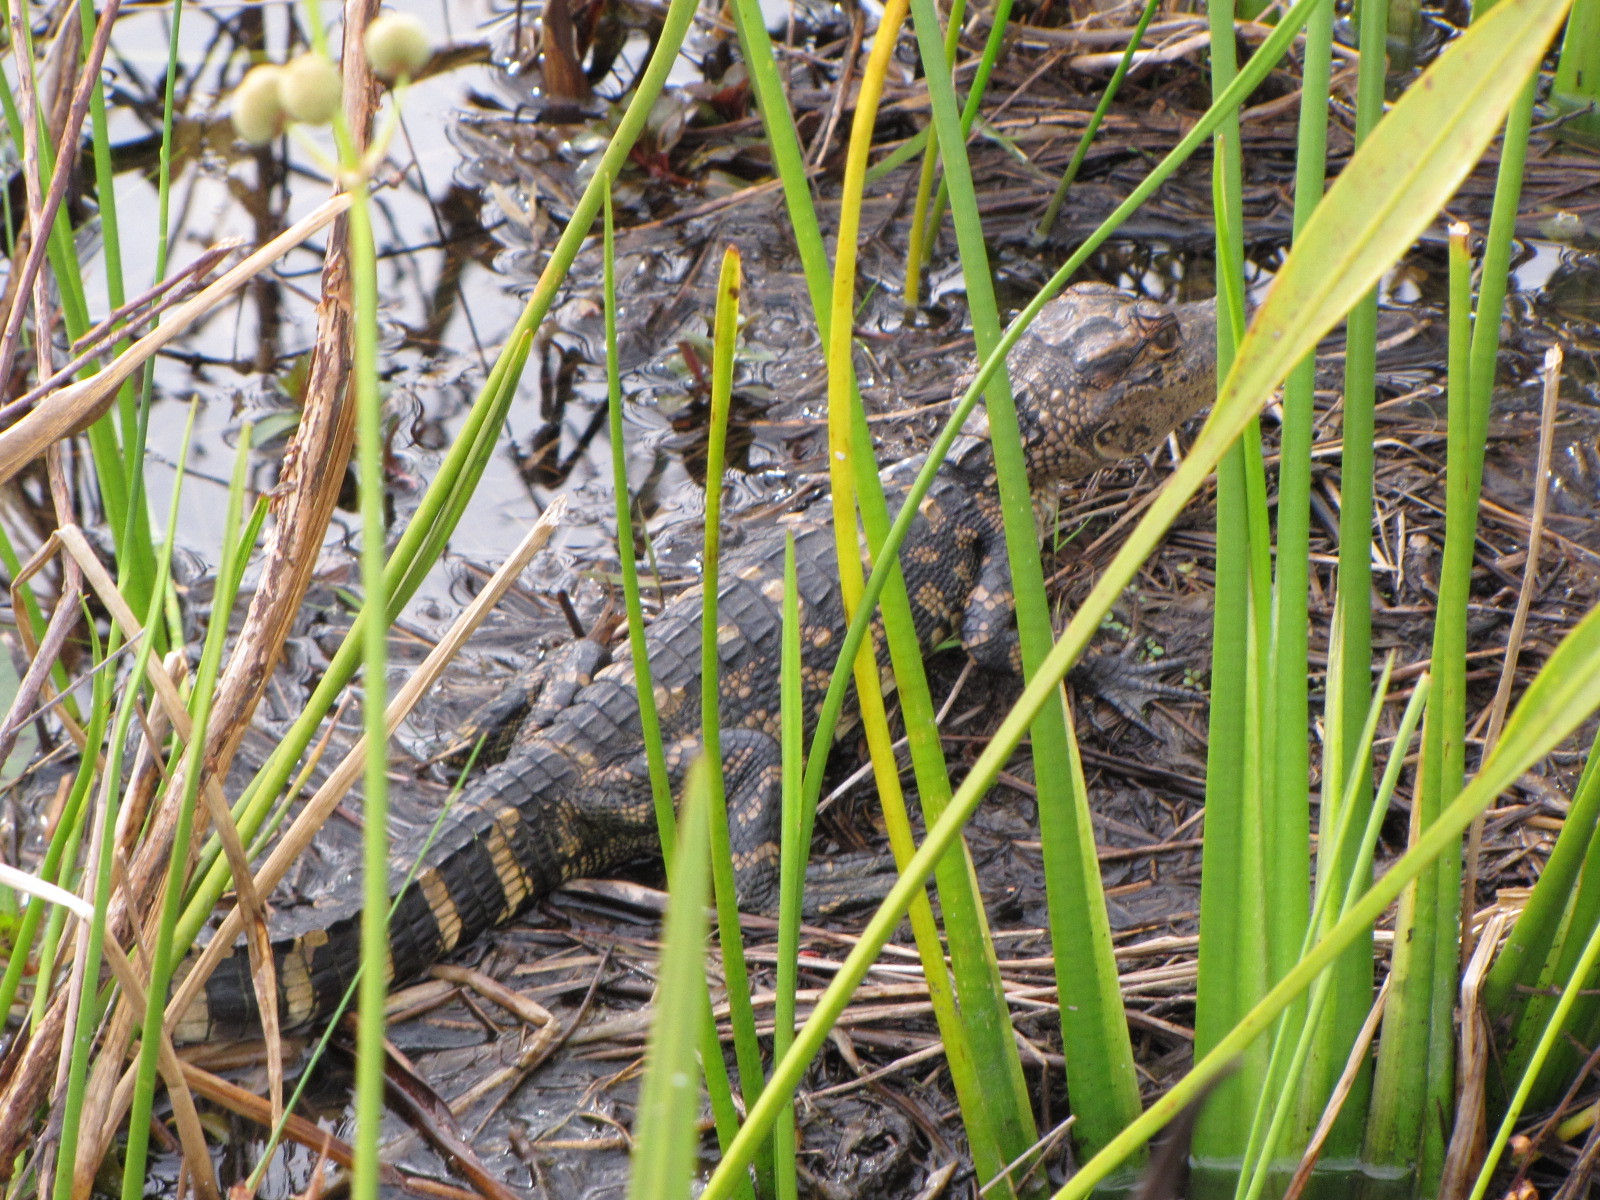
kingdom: Animalia
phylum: Chordata
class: Crocodylia
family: Alligatoridae
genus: Alligator
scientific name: Alligator mississippiensis
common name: American alligator
